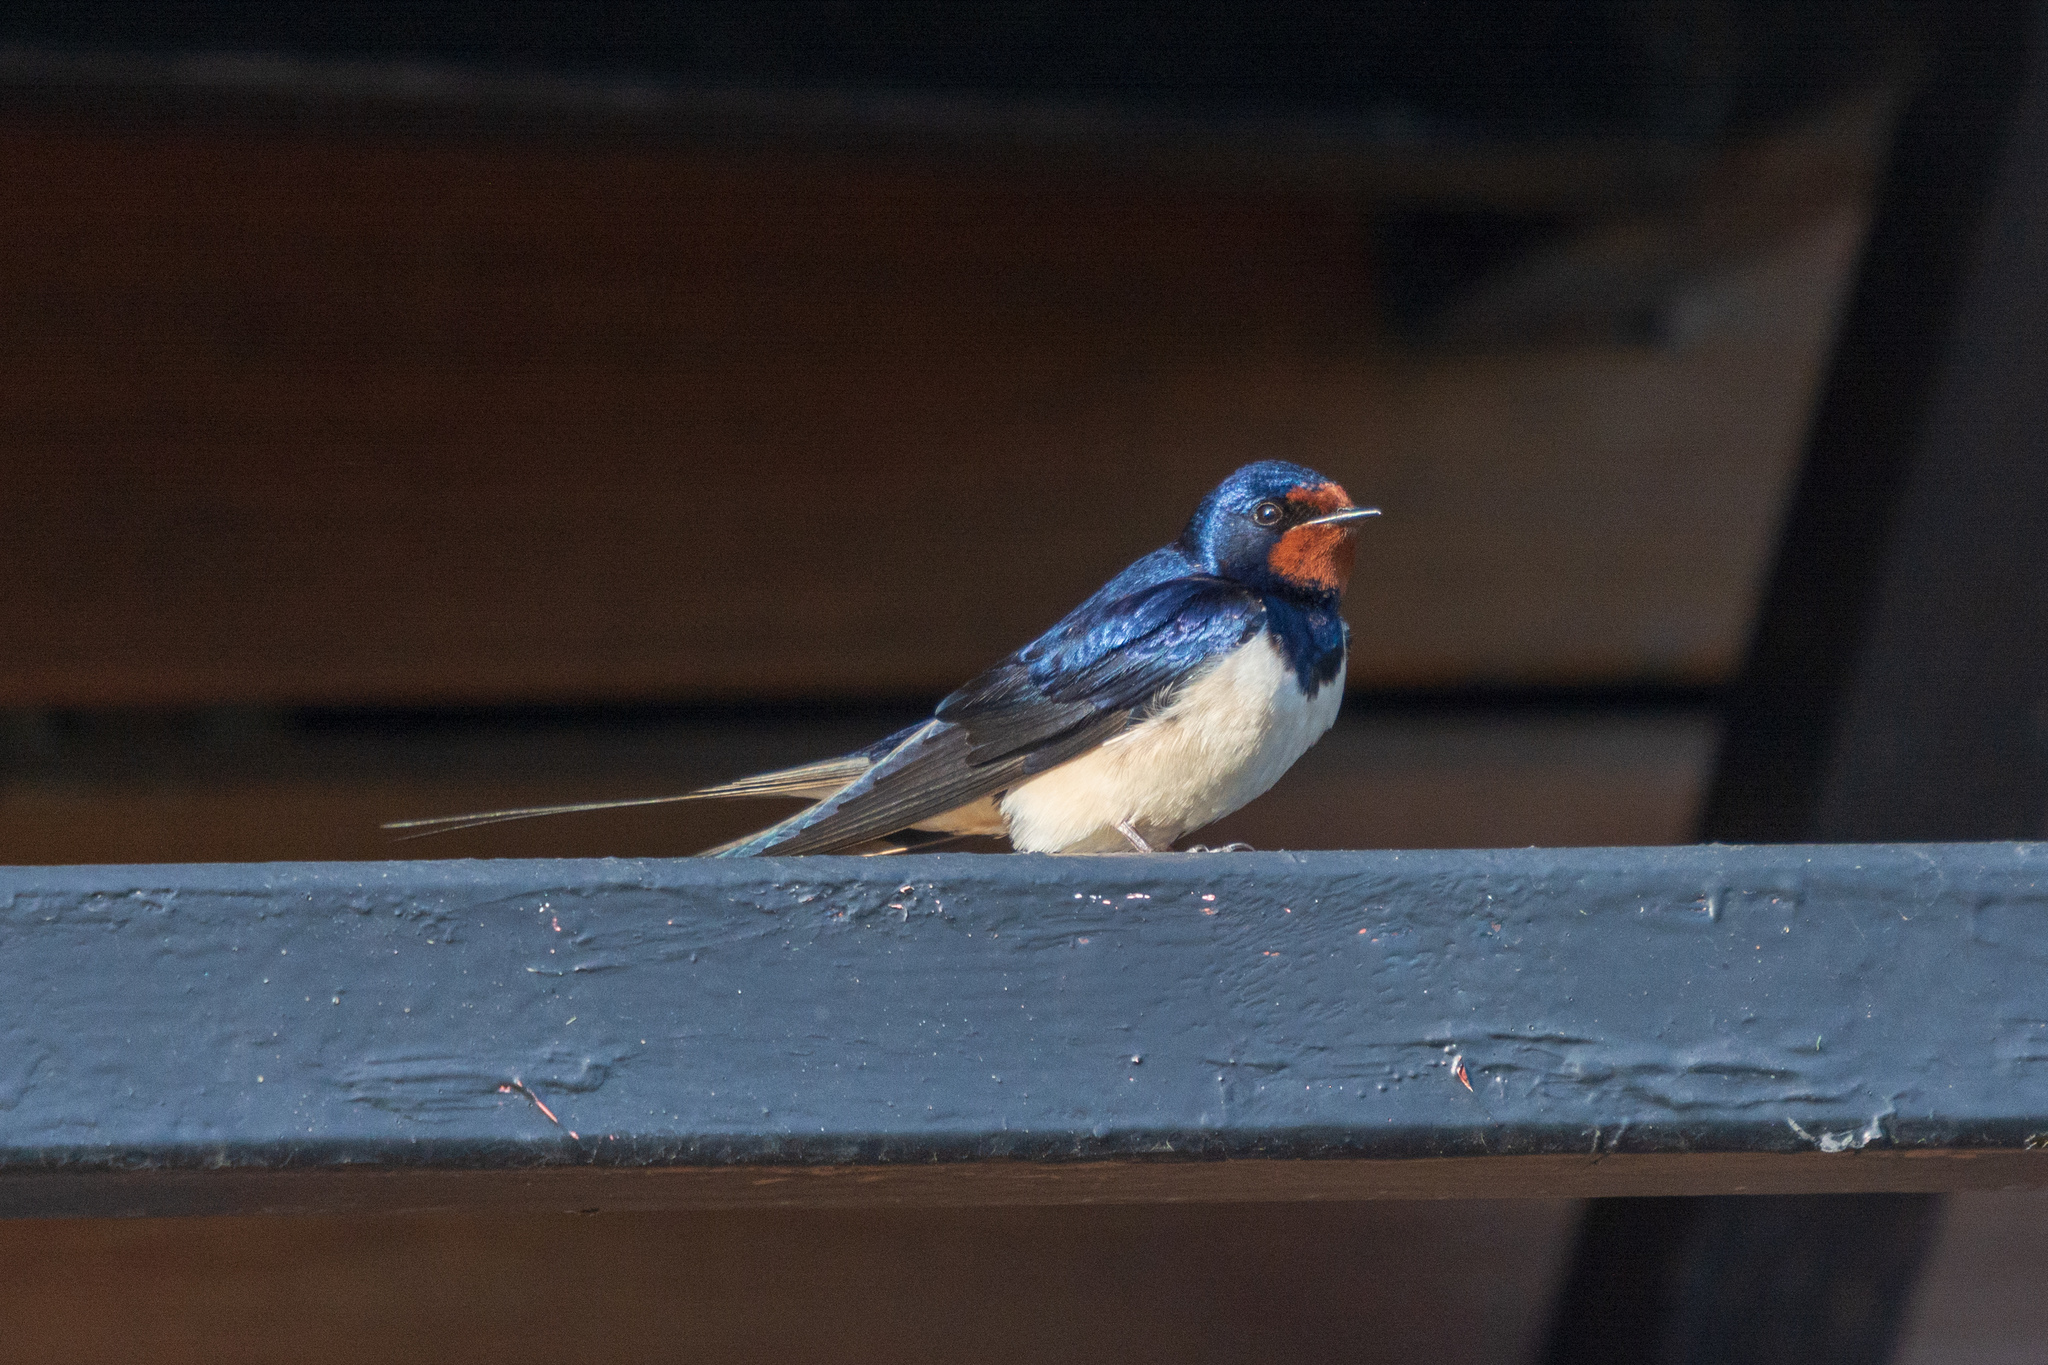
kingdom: Animalia
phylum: Chordata
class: Aves
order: Passeriformes
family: Hirundinidae
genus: Hirundo
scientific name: Hirundo rustica
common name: Barn swallow
